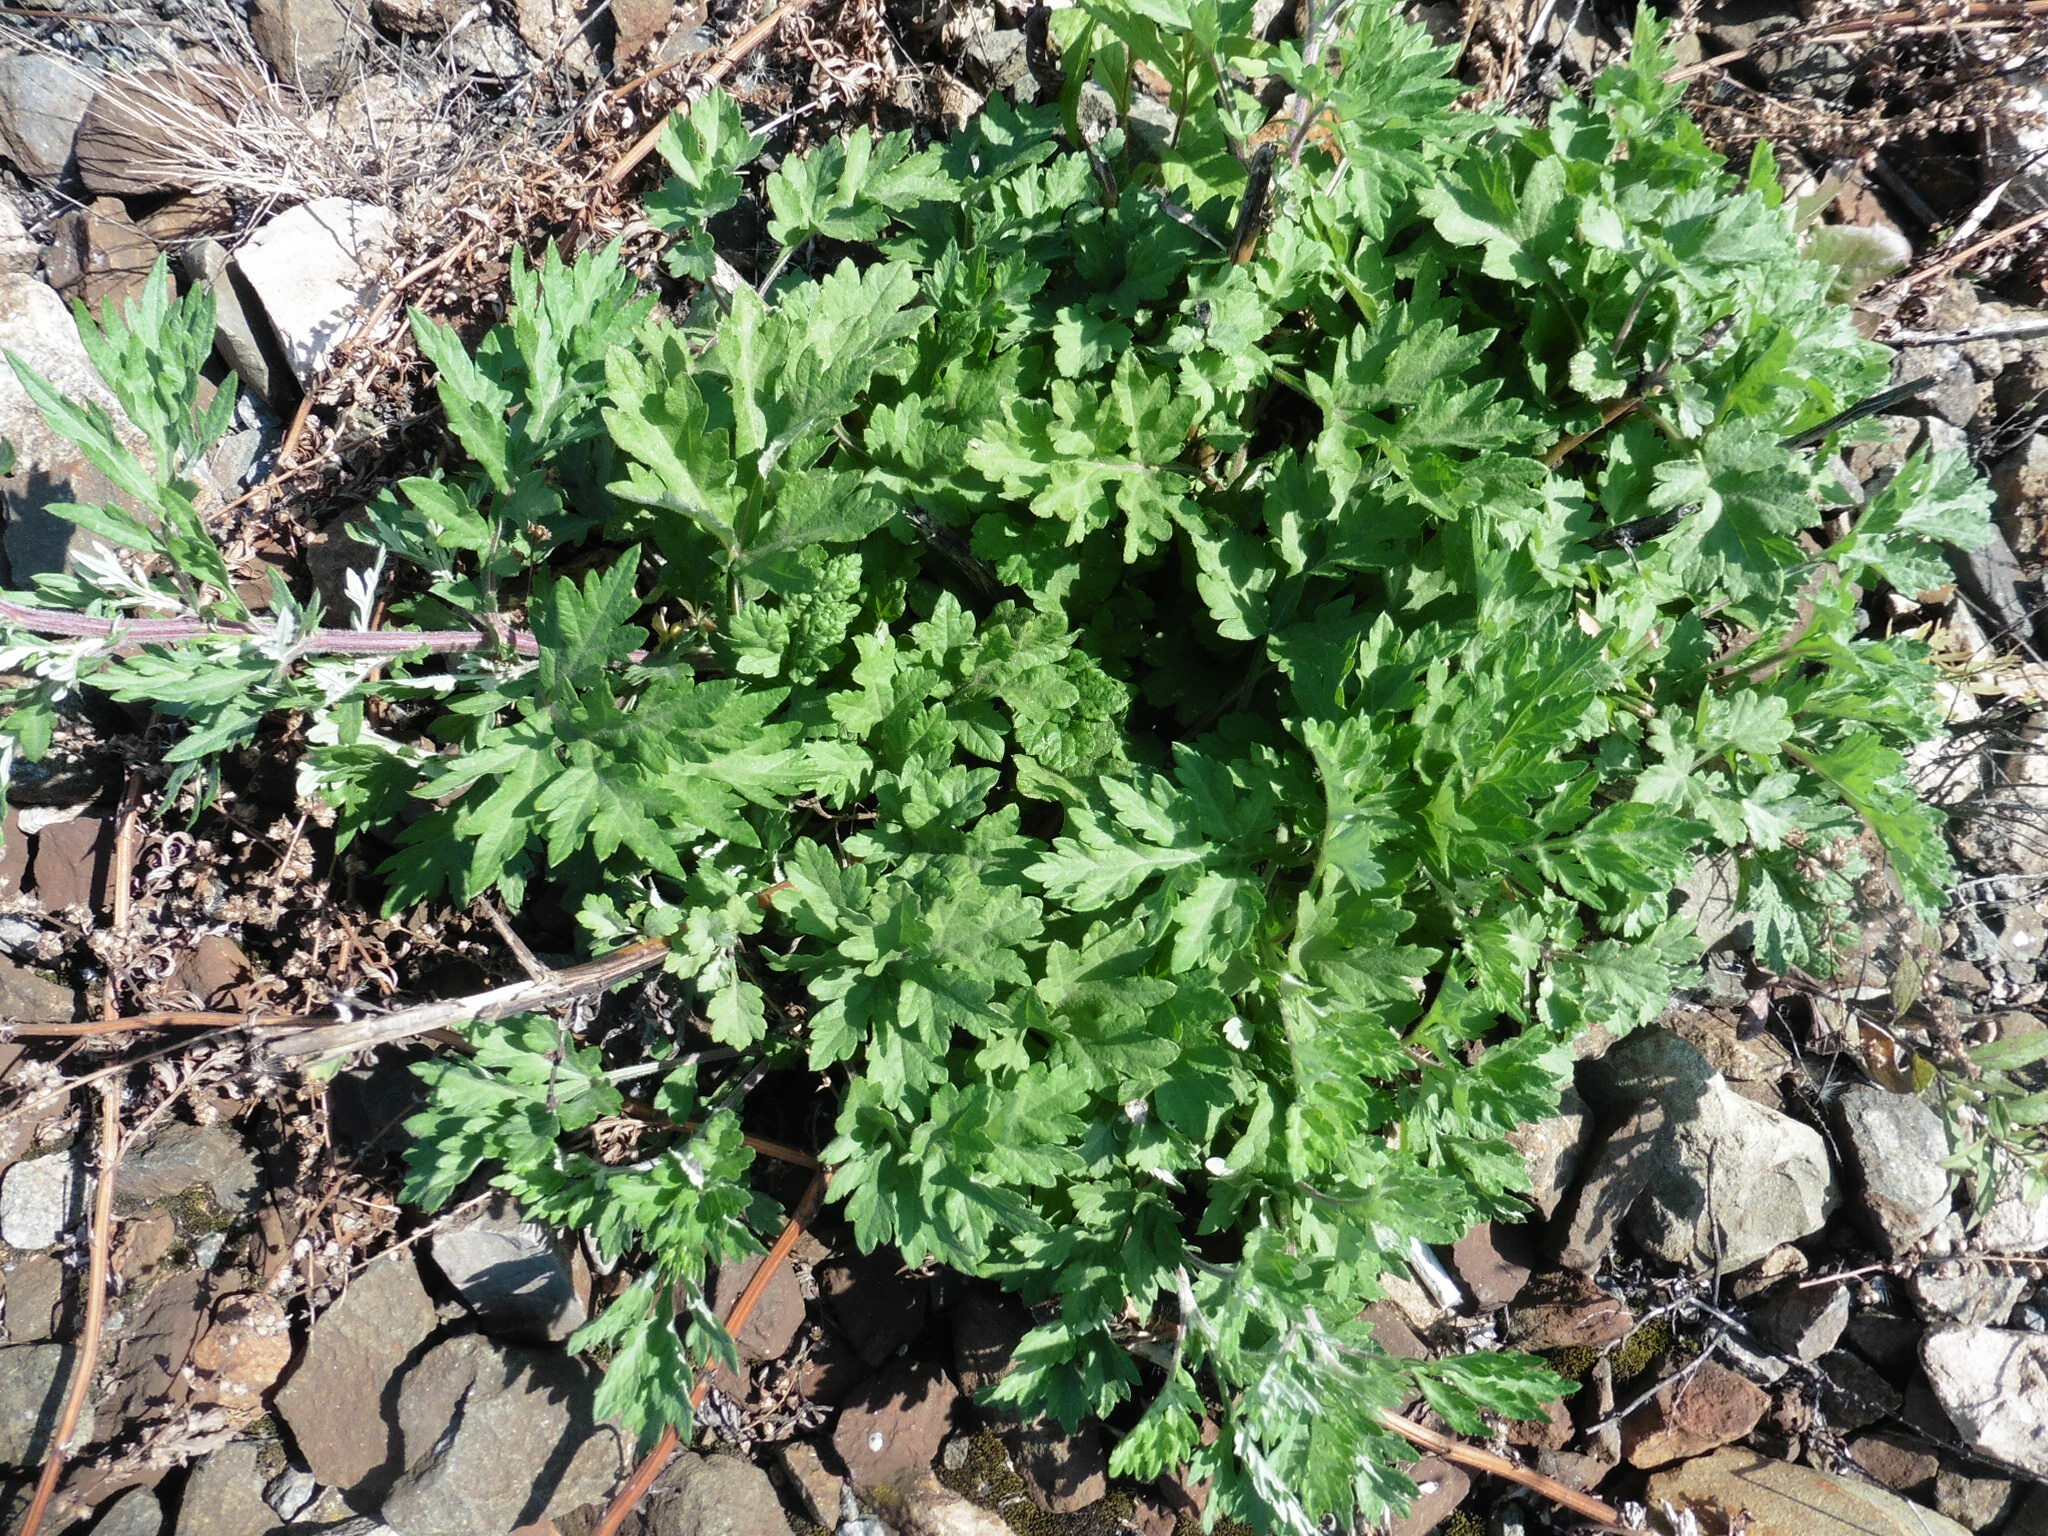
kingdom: Plantae
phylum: Tracheophyta
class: Magnoliopsida
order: Asterales
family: Asteraceae
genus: Artemisia
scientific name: Artemisia vulgaris
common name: Mugwort
